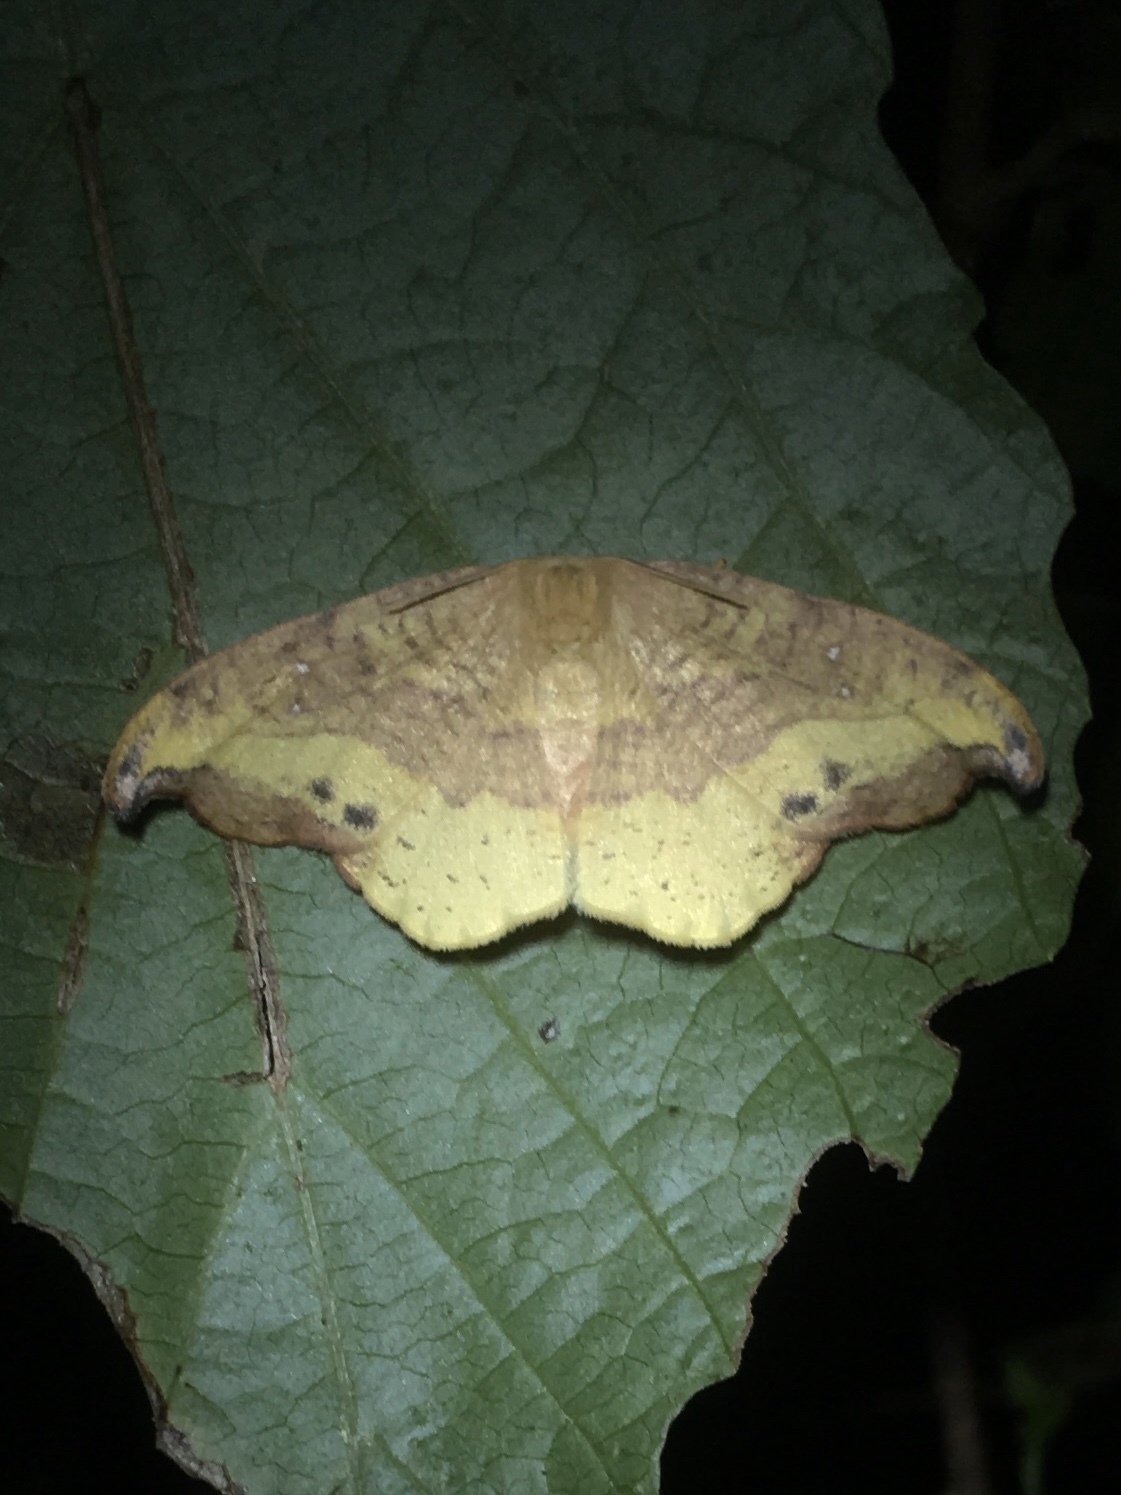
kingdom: Animalia
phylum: Arthropoda
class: Insecta
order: Lepidoptera
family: Drepanidae
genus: Oreta
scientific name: Oreta rosea
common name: Rose hooktip
